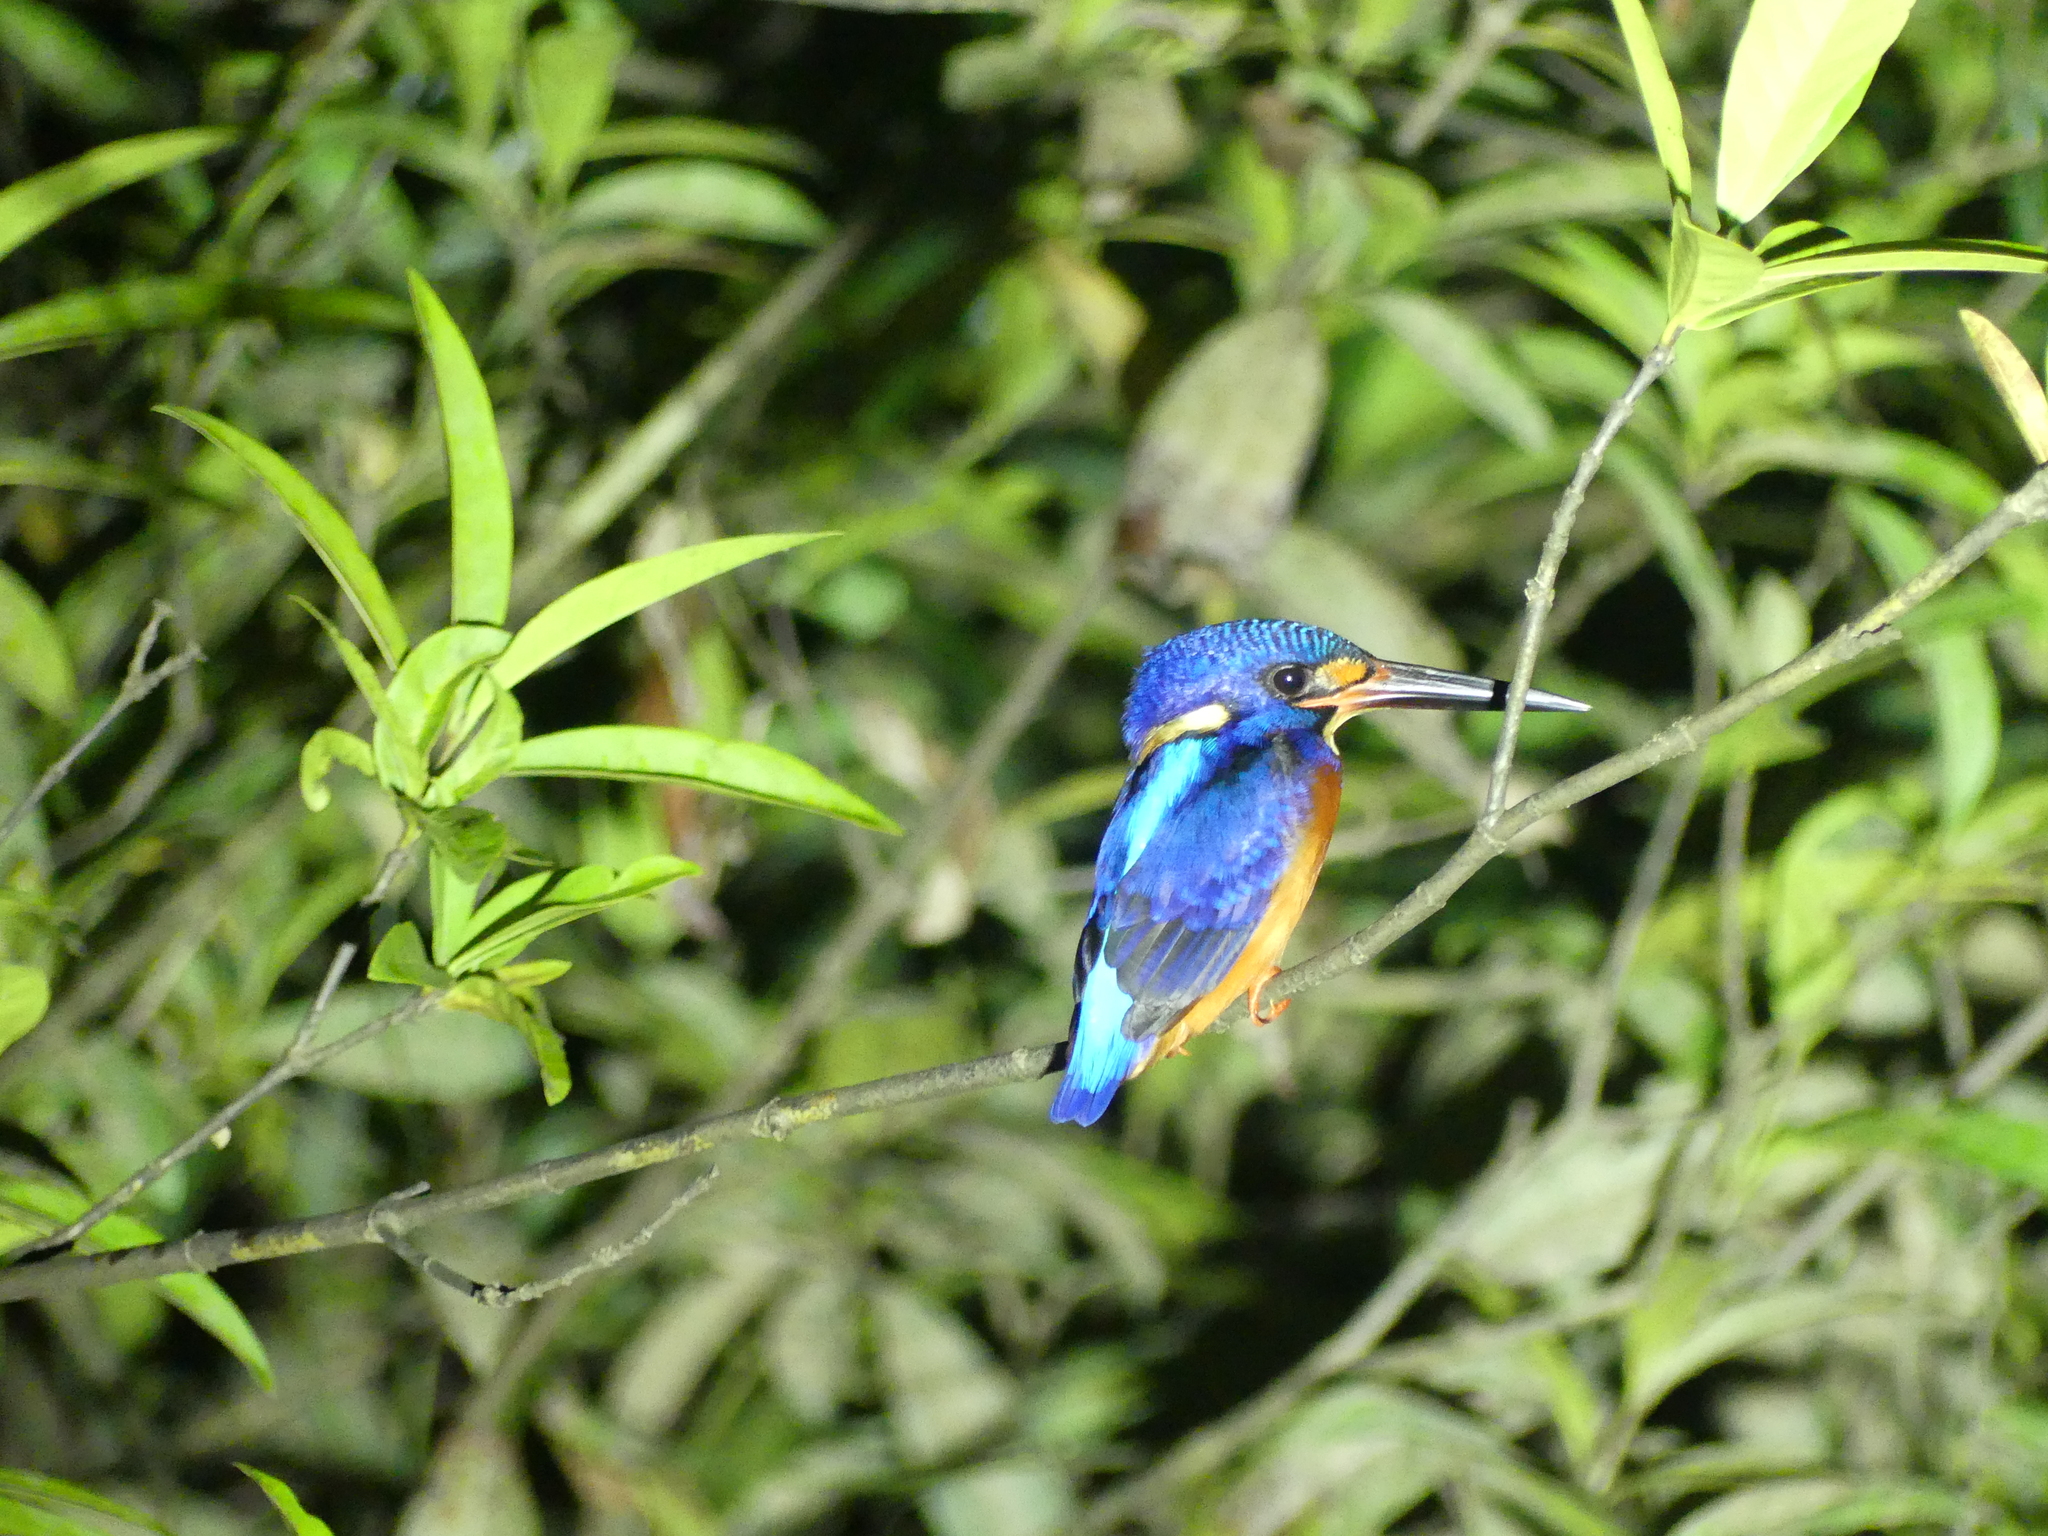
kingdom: Animalia
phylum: Chordata
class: Aves
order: Coraciiformes
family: Alcedinidae
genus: Alcedo
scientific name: Alcedo meninting
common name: Blue-eared kingfisher
